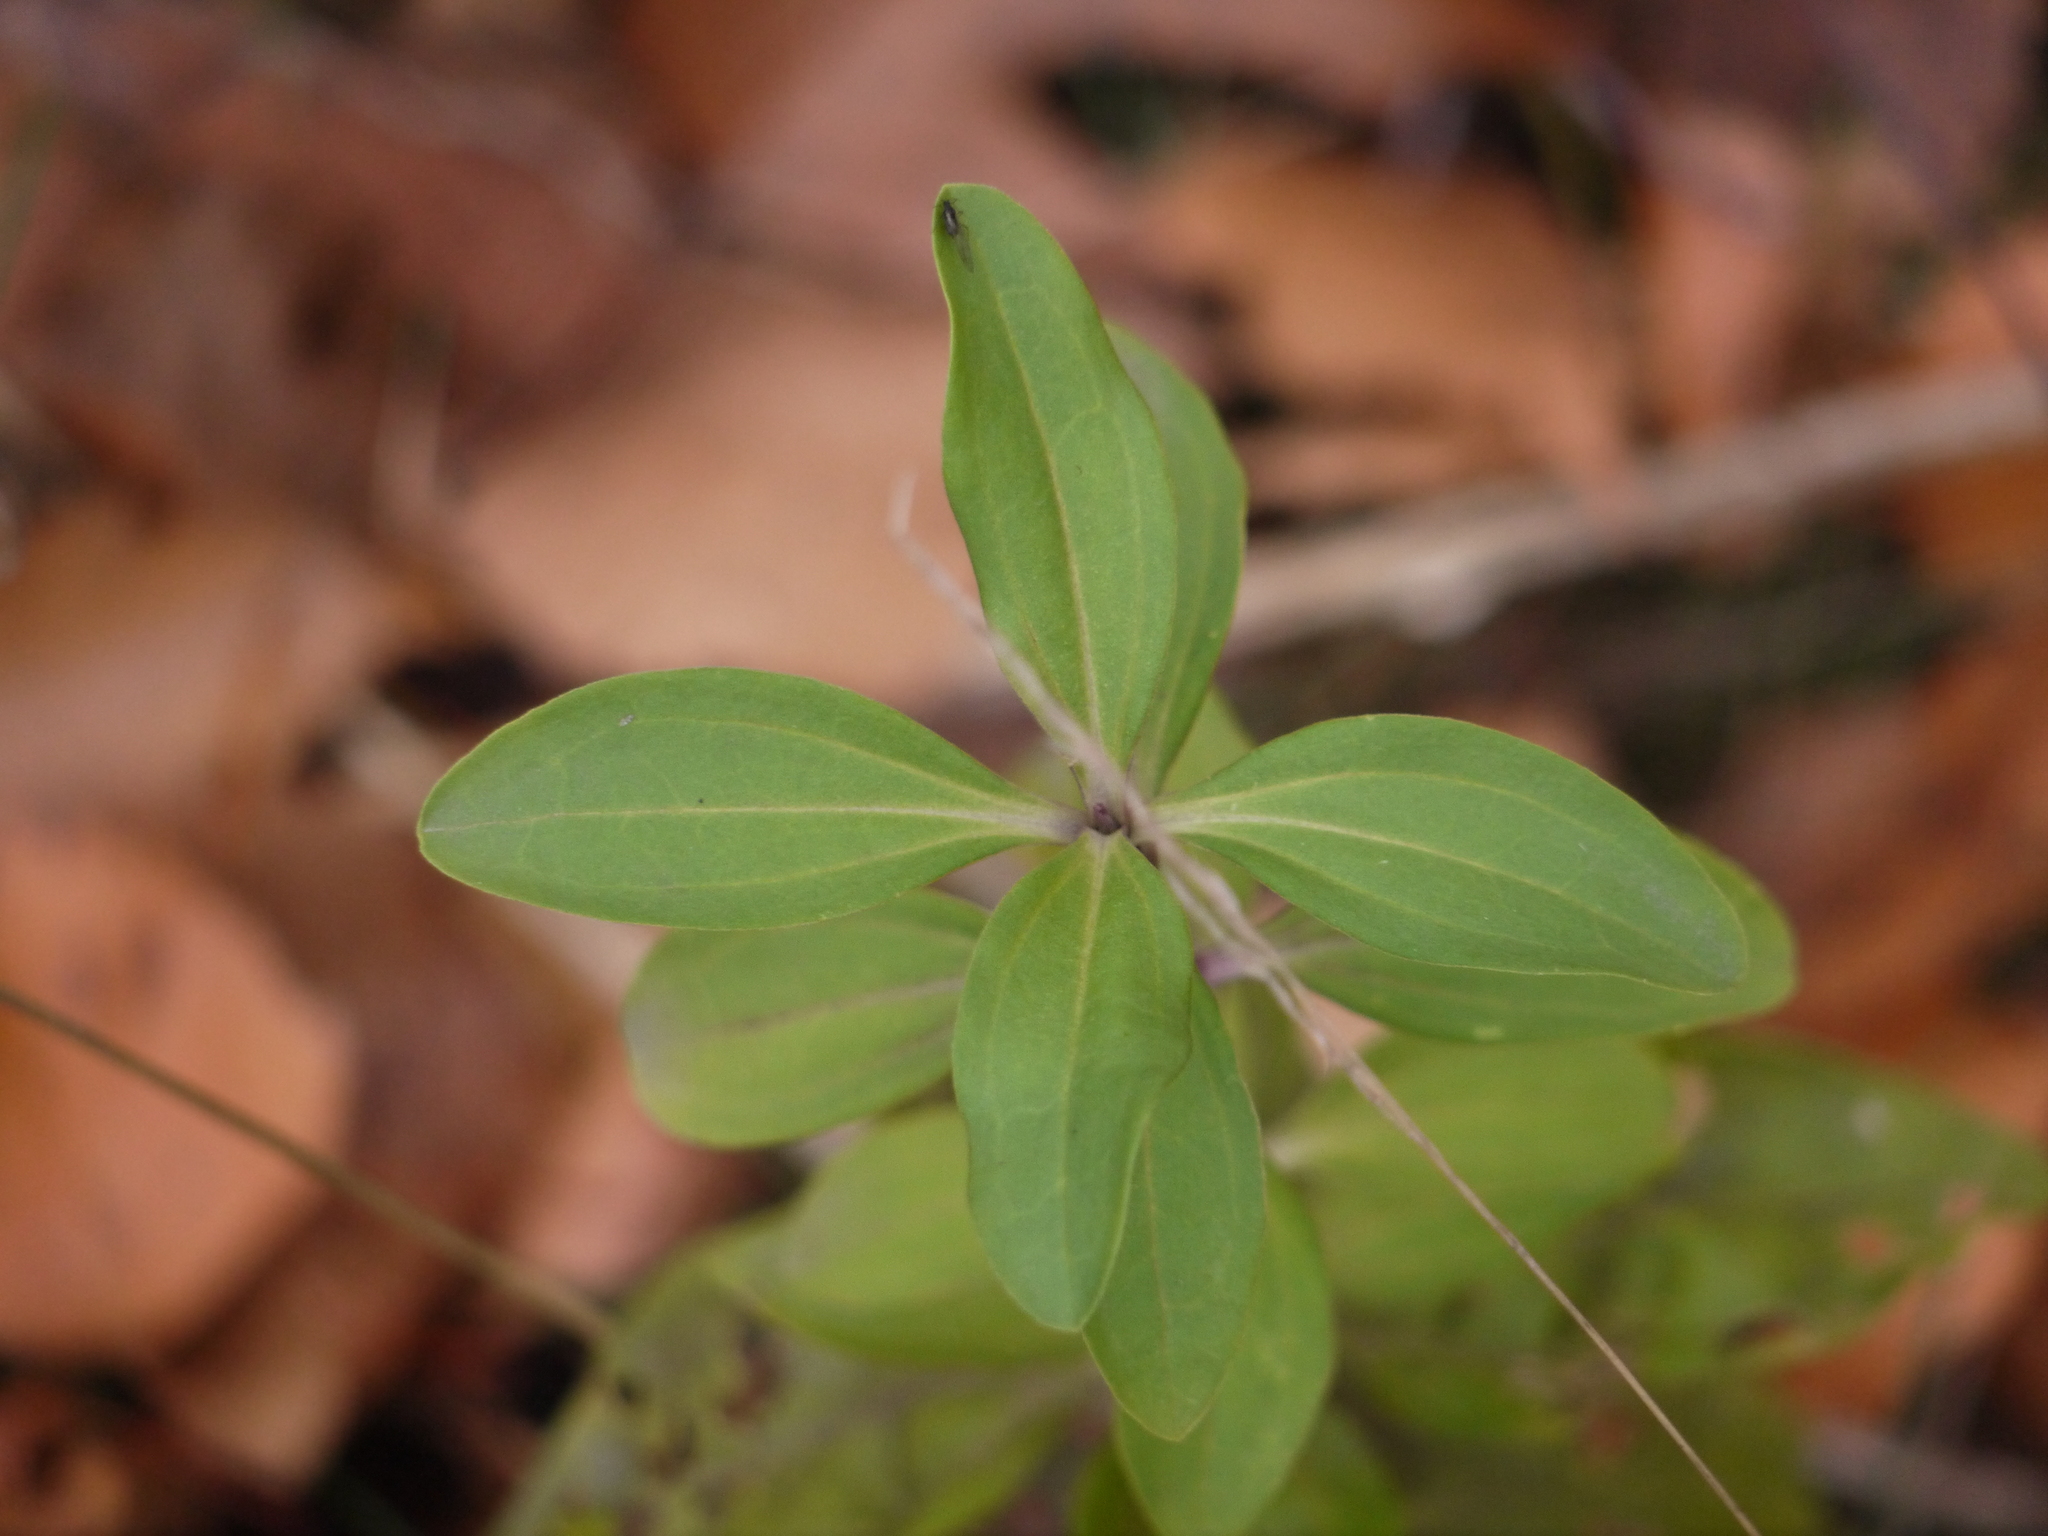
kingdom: Plantae
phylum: Tracheophyta
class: Magnoliopsida
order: Caryophyllales
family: Caryophyllaceae
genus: Saponaria
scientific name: Saponaria officinalis
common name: Soapwort
